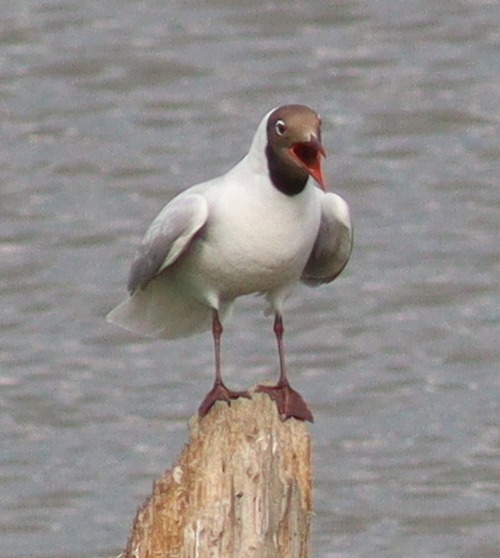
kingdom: Animalia
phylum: Chordata
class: Aves
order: Charadriiformes
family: Laridae
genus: Chroicocephalus
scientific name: Chroicocephalus ridibundus
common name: Black-headed gull
